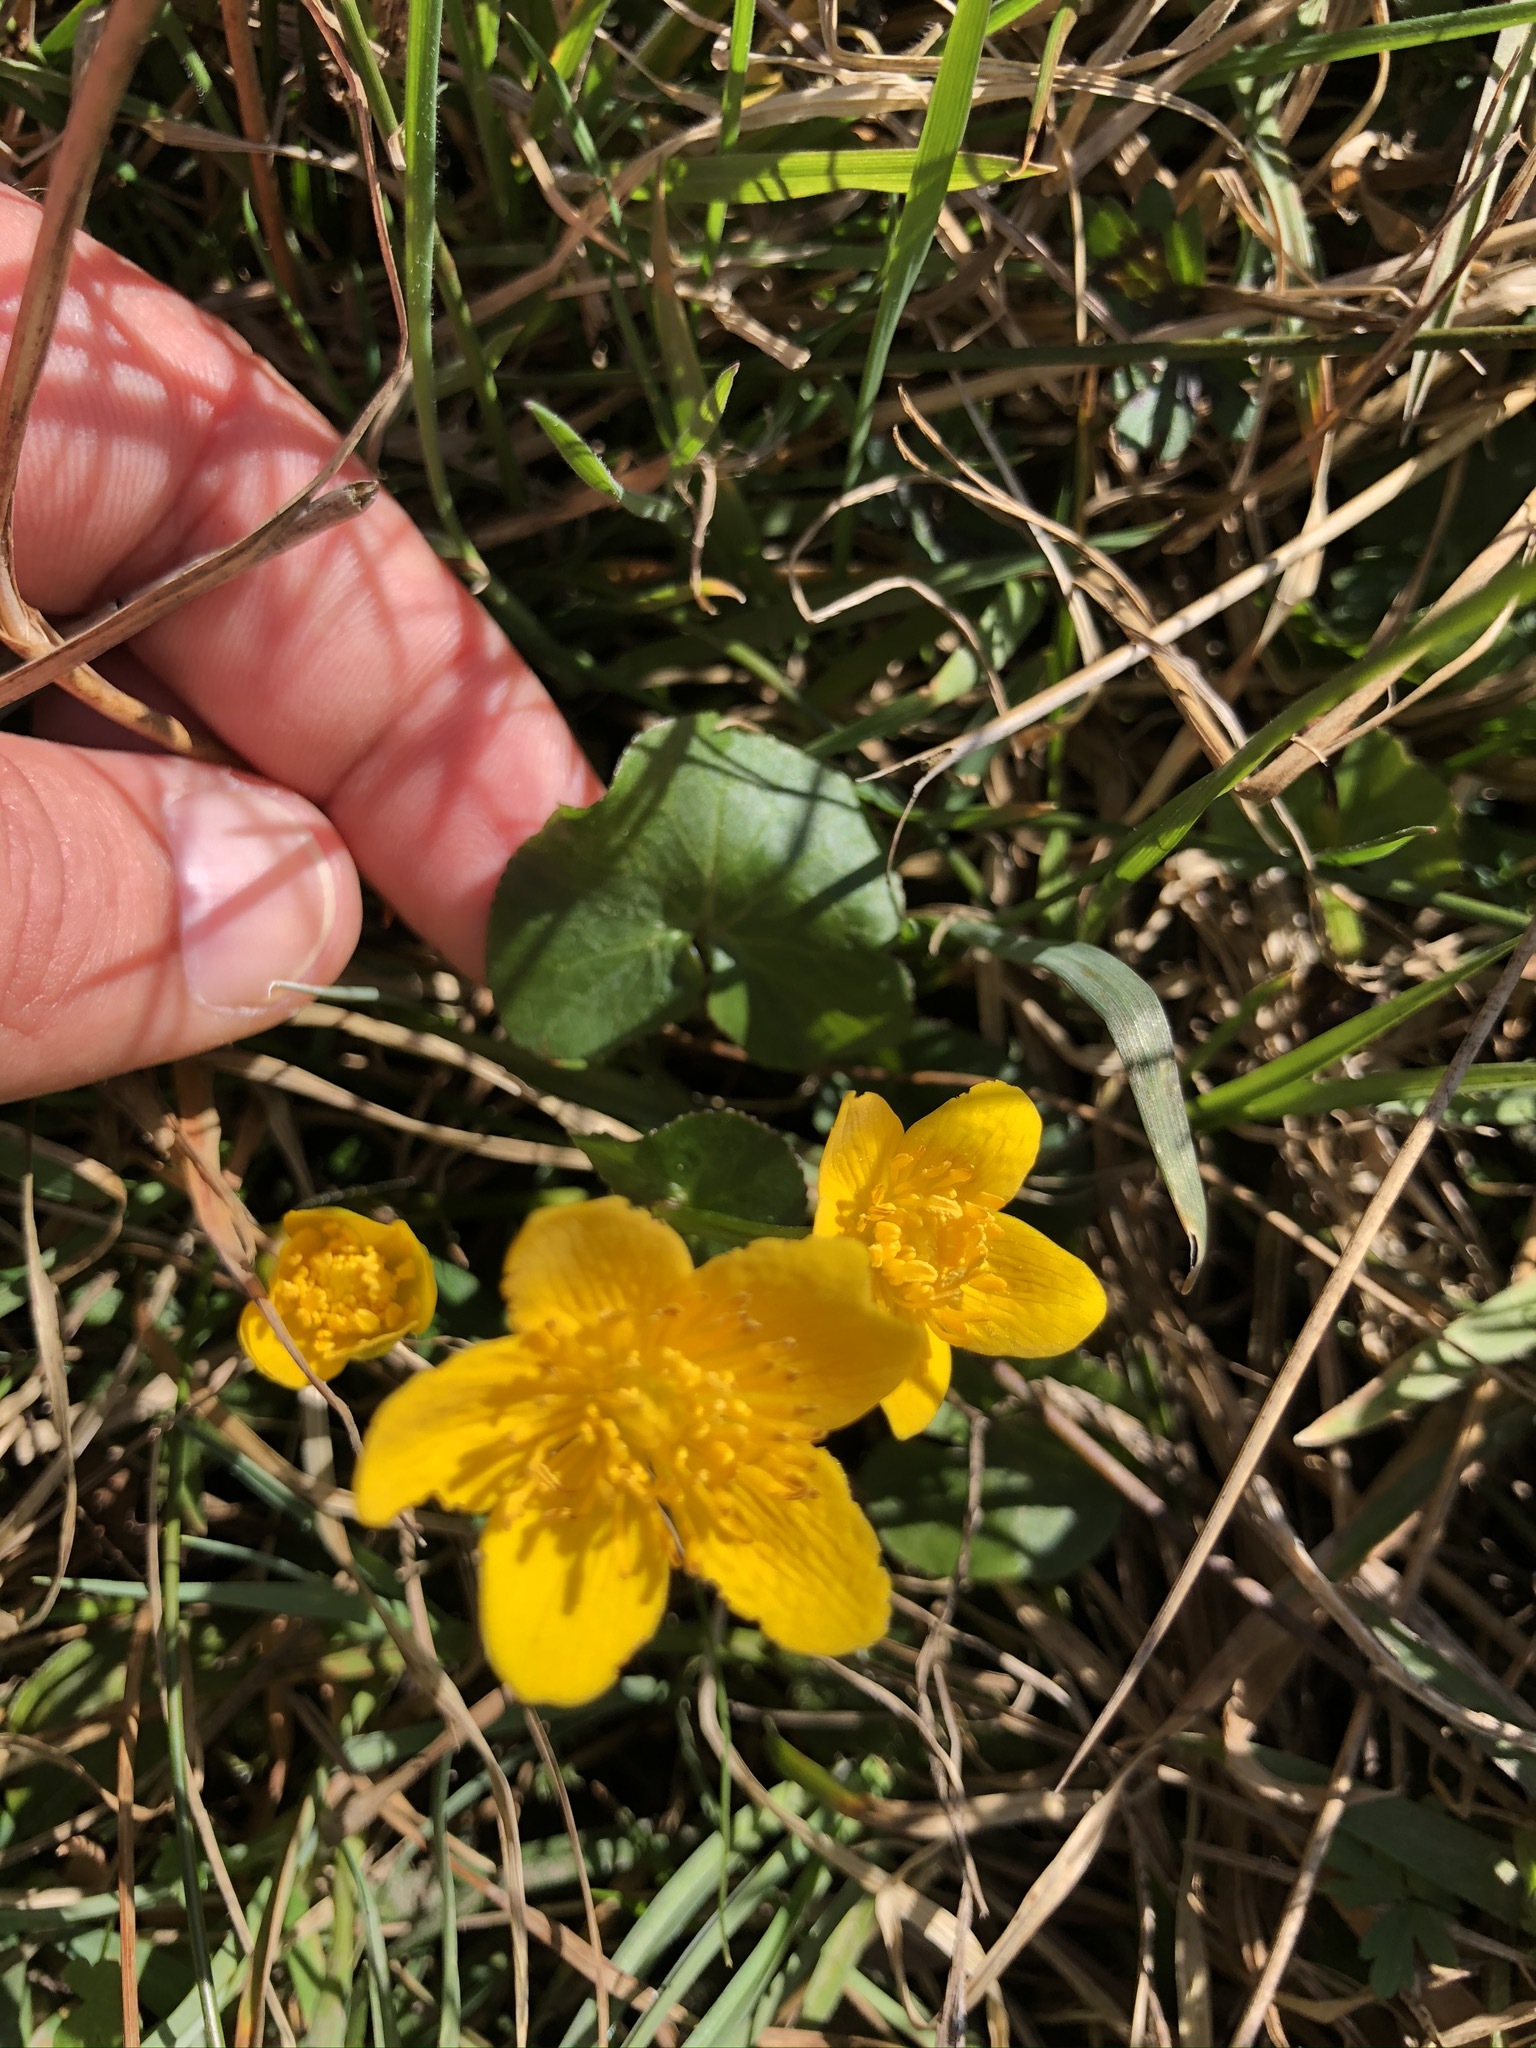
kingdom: Plantae
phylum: Tracheophyta
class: Magnoliopsida
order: Ranunculales
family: Ranunculaceae
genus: Caltha
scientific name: Caltha palustris
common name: Marsh marigold
